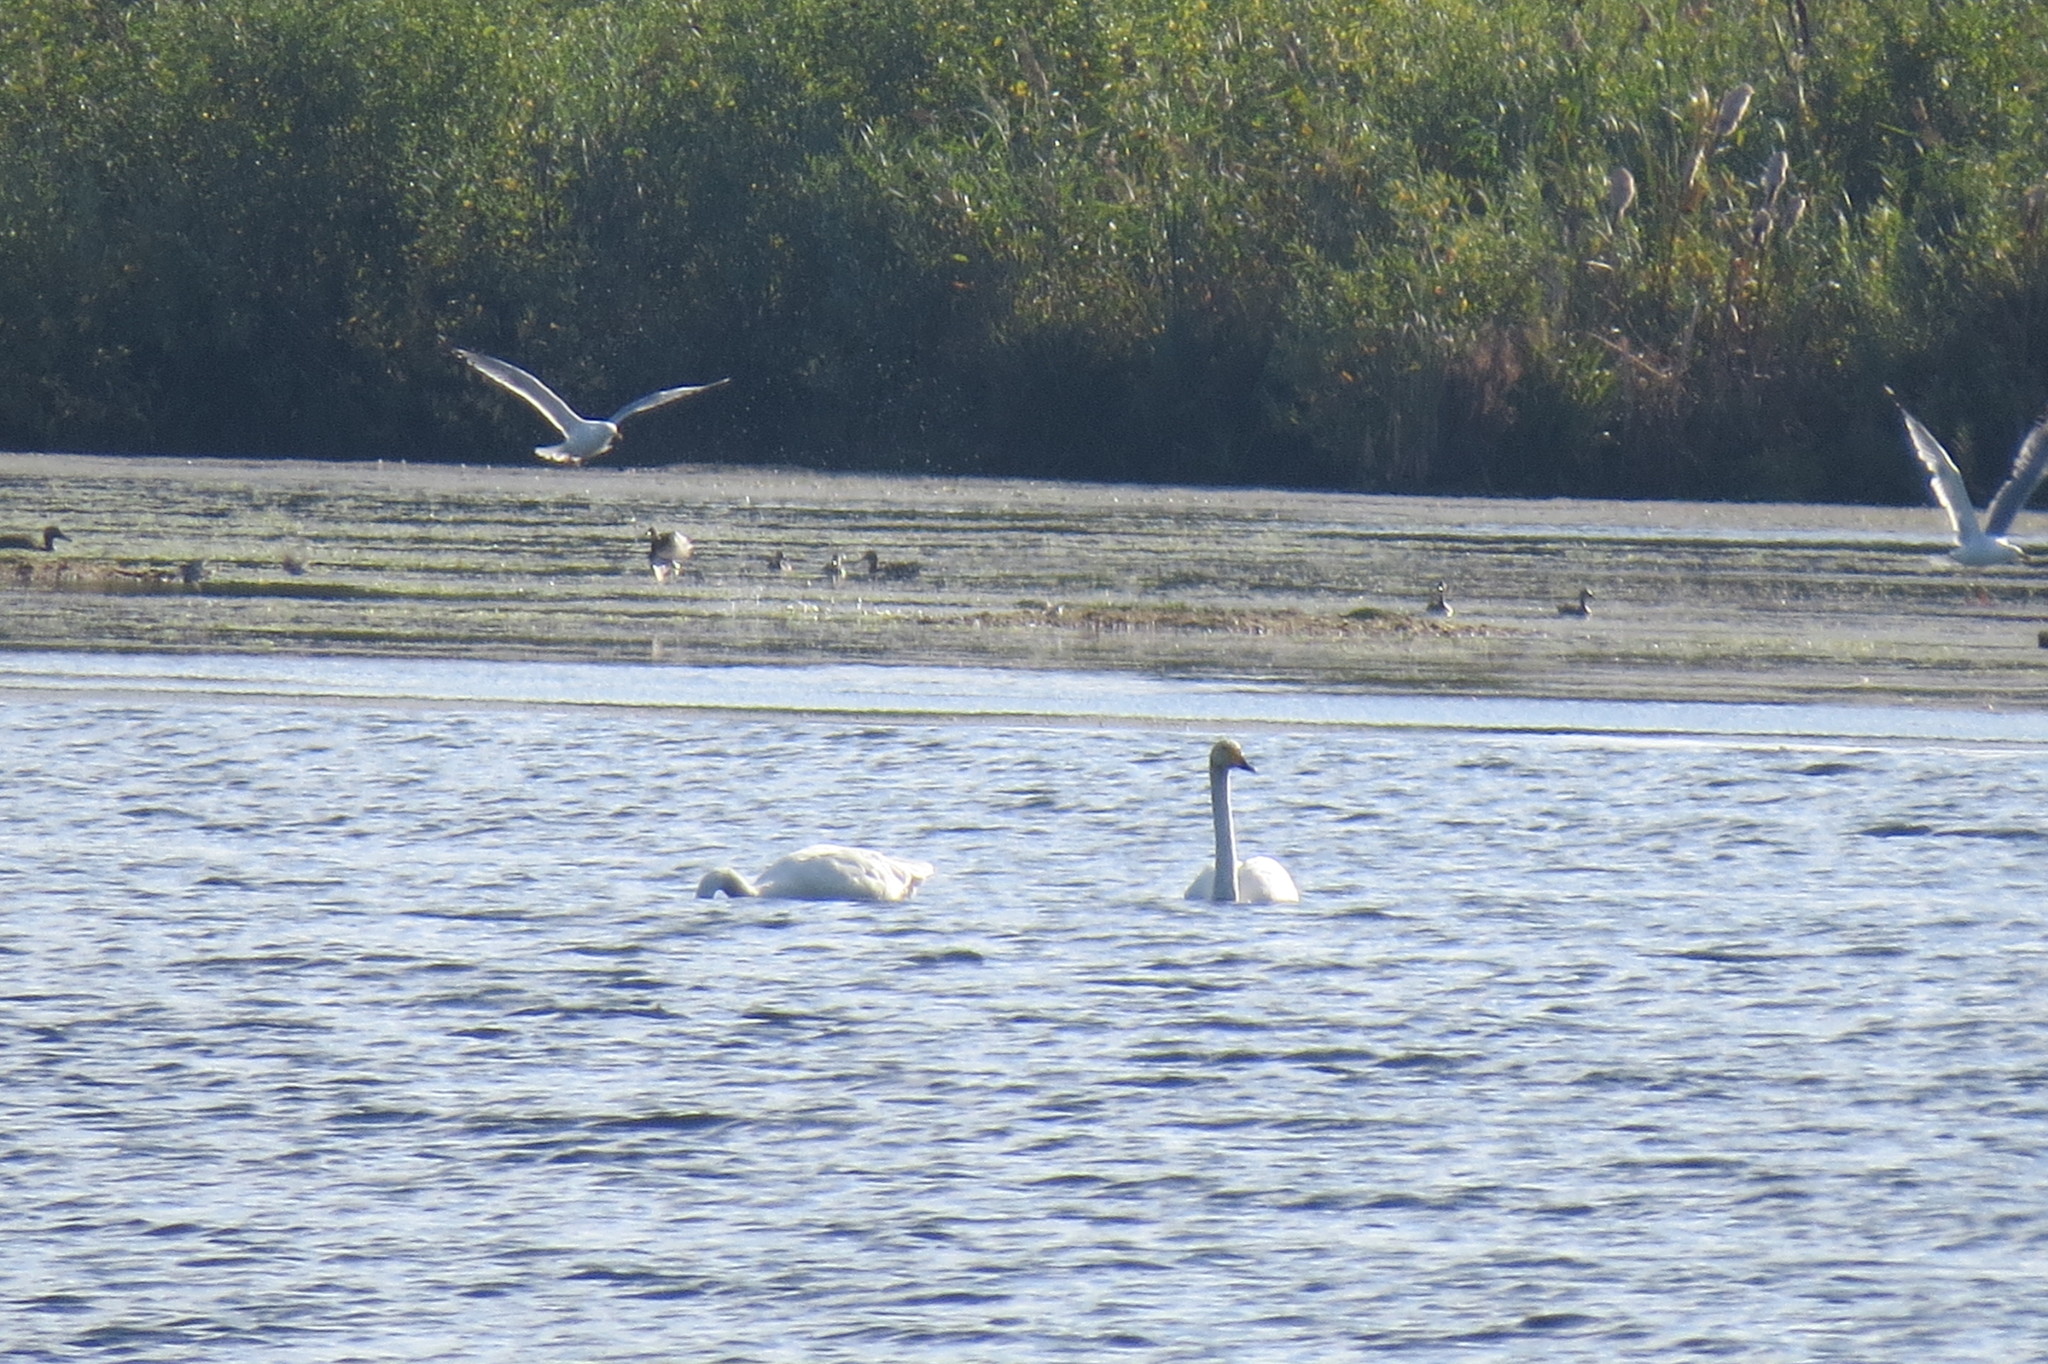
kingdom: Animalia
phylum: Chordata
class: Aves
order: Anseriformes
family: Anatidae
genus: Cygnus
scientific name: Cygnus cygnus
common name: Whooper swan
